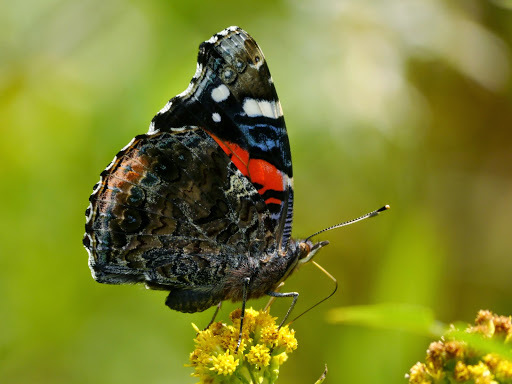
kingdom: Animalia
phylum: Arthropoda
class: Insecta
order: Lepidoptera
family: Nymphalidae
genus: Vanessa
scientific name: Vanessa atalanta
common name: Red admiral
